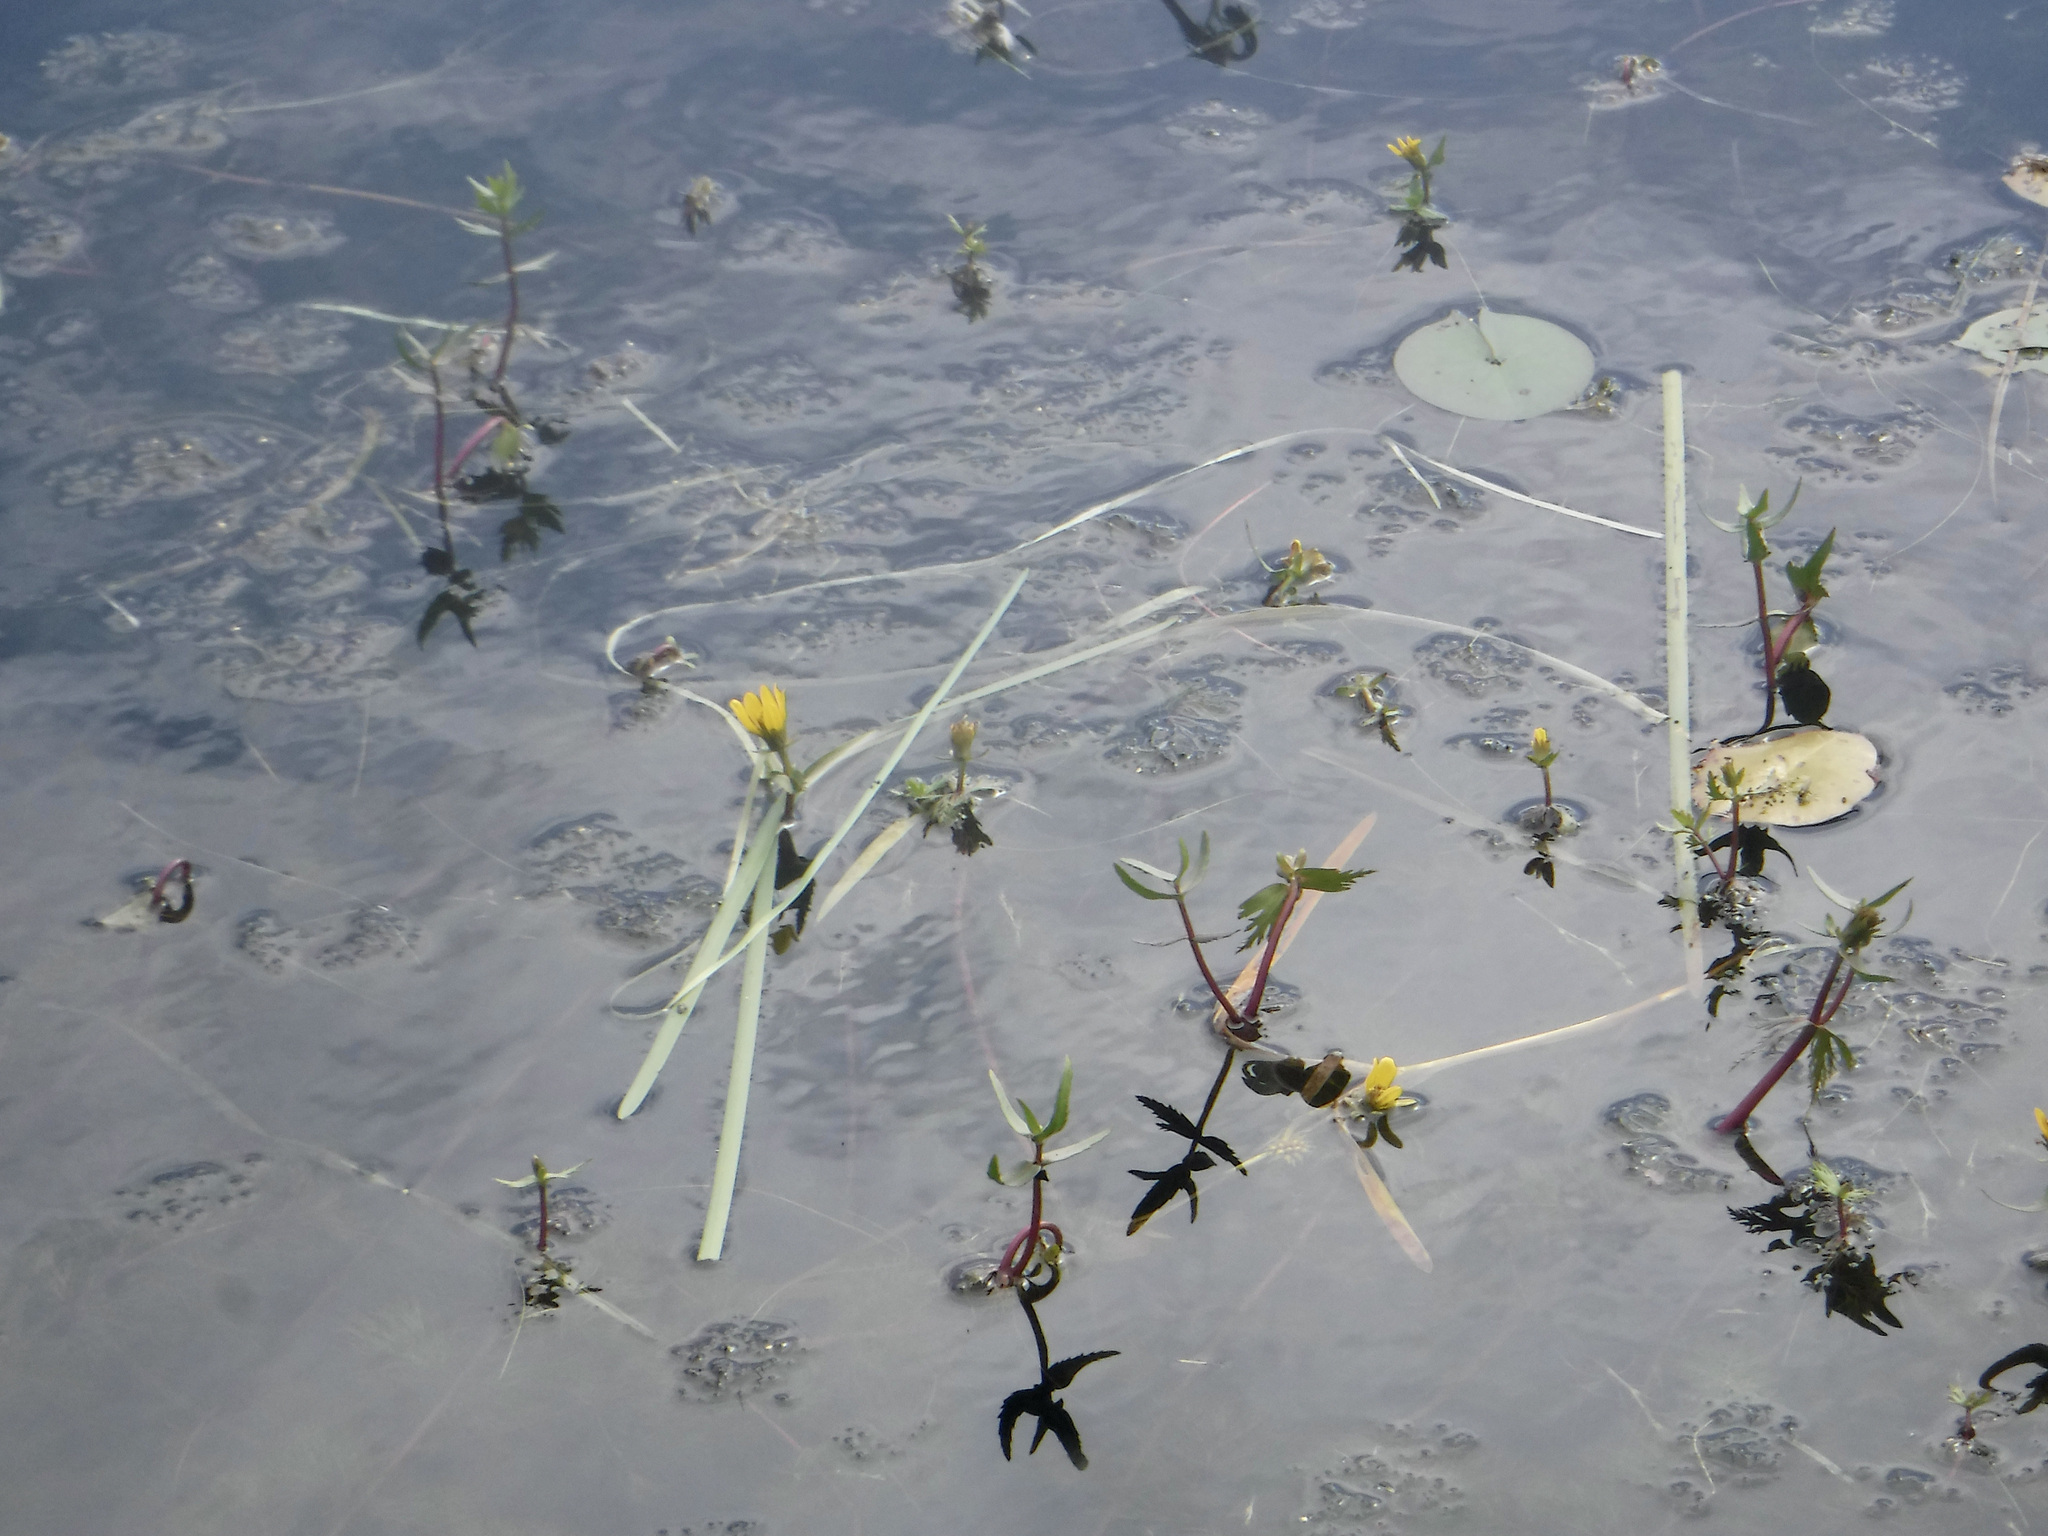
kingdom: Plantae
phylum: Tracheophyta
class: Magnoliopsida
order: Asterales
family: Asteraceae
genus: Bidens
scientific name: Bidens beckii
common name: Beck's beggarticks
